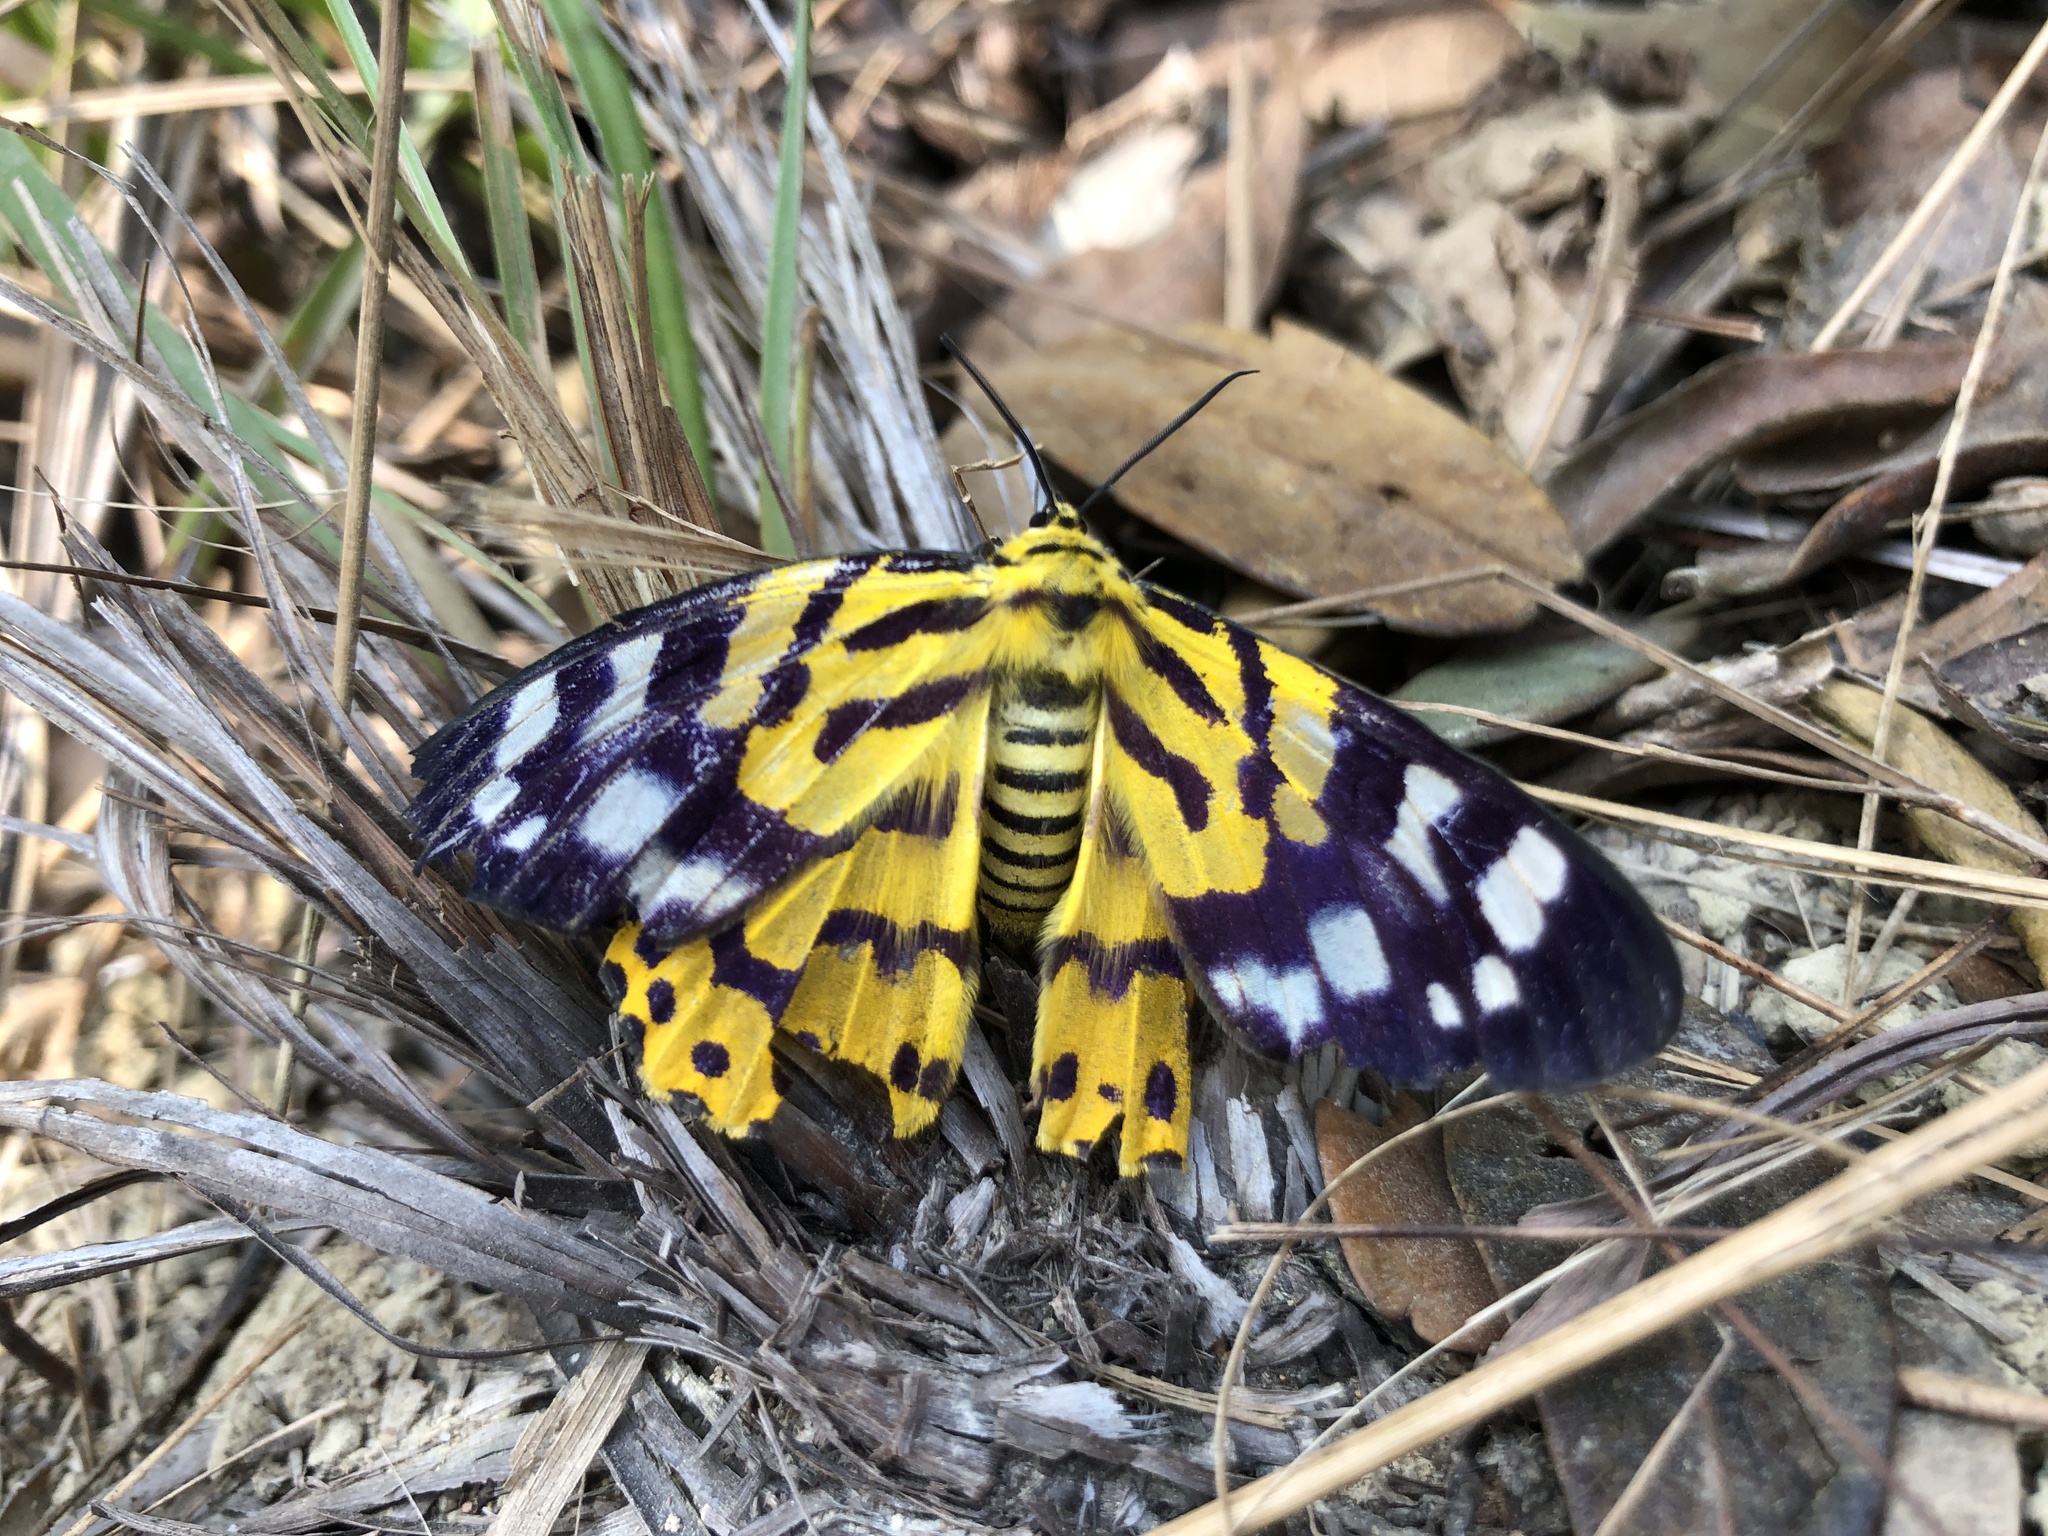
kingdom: Animalia
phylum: Arthropoda
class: Insecta
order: Lepidoptera
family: Geometridae
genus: Dysphania
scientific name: Dysphania militaris
